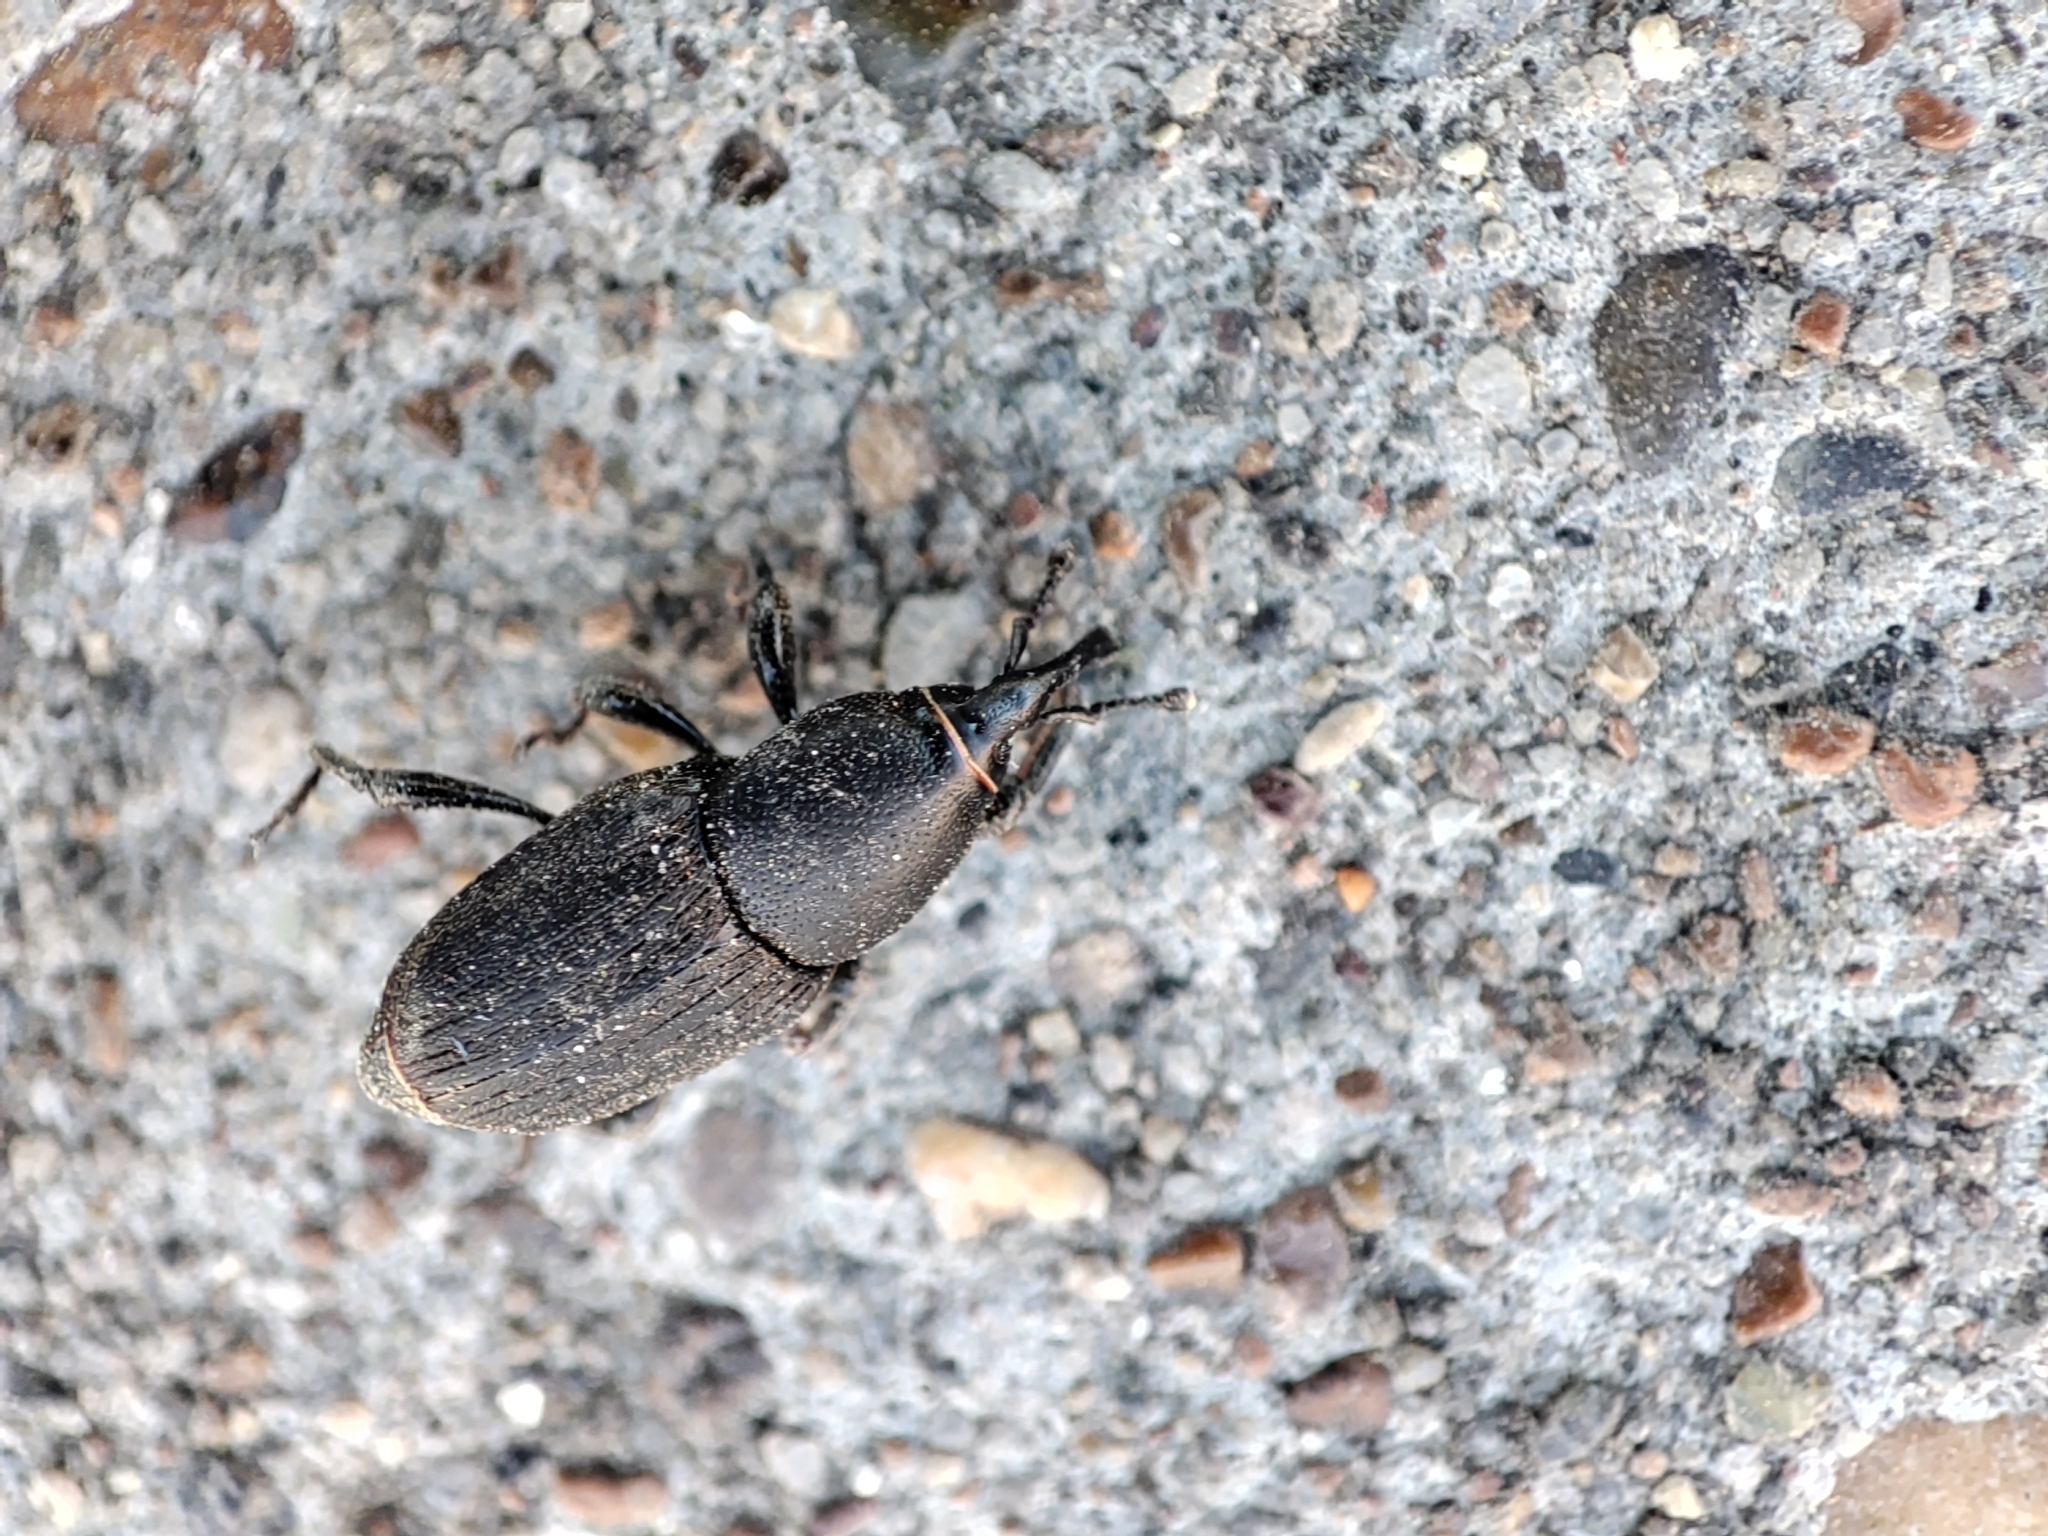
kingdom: Animalia
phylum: Arthropoda
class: Insecta
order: Coleoptera
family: Dryophthoridae
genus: Sphenophorus
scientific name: Sphenophorus striatopunctatus
